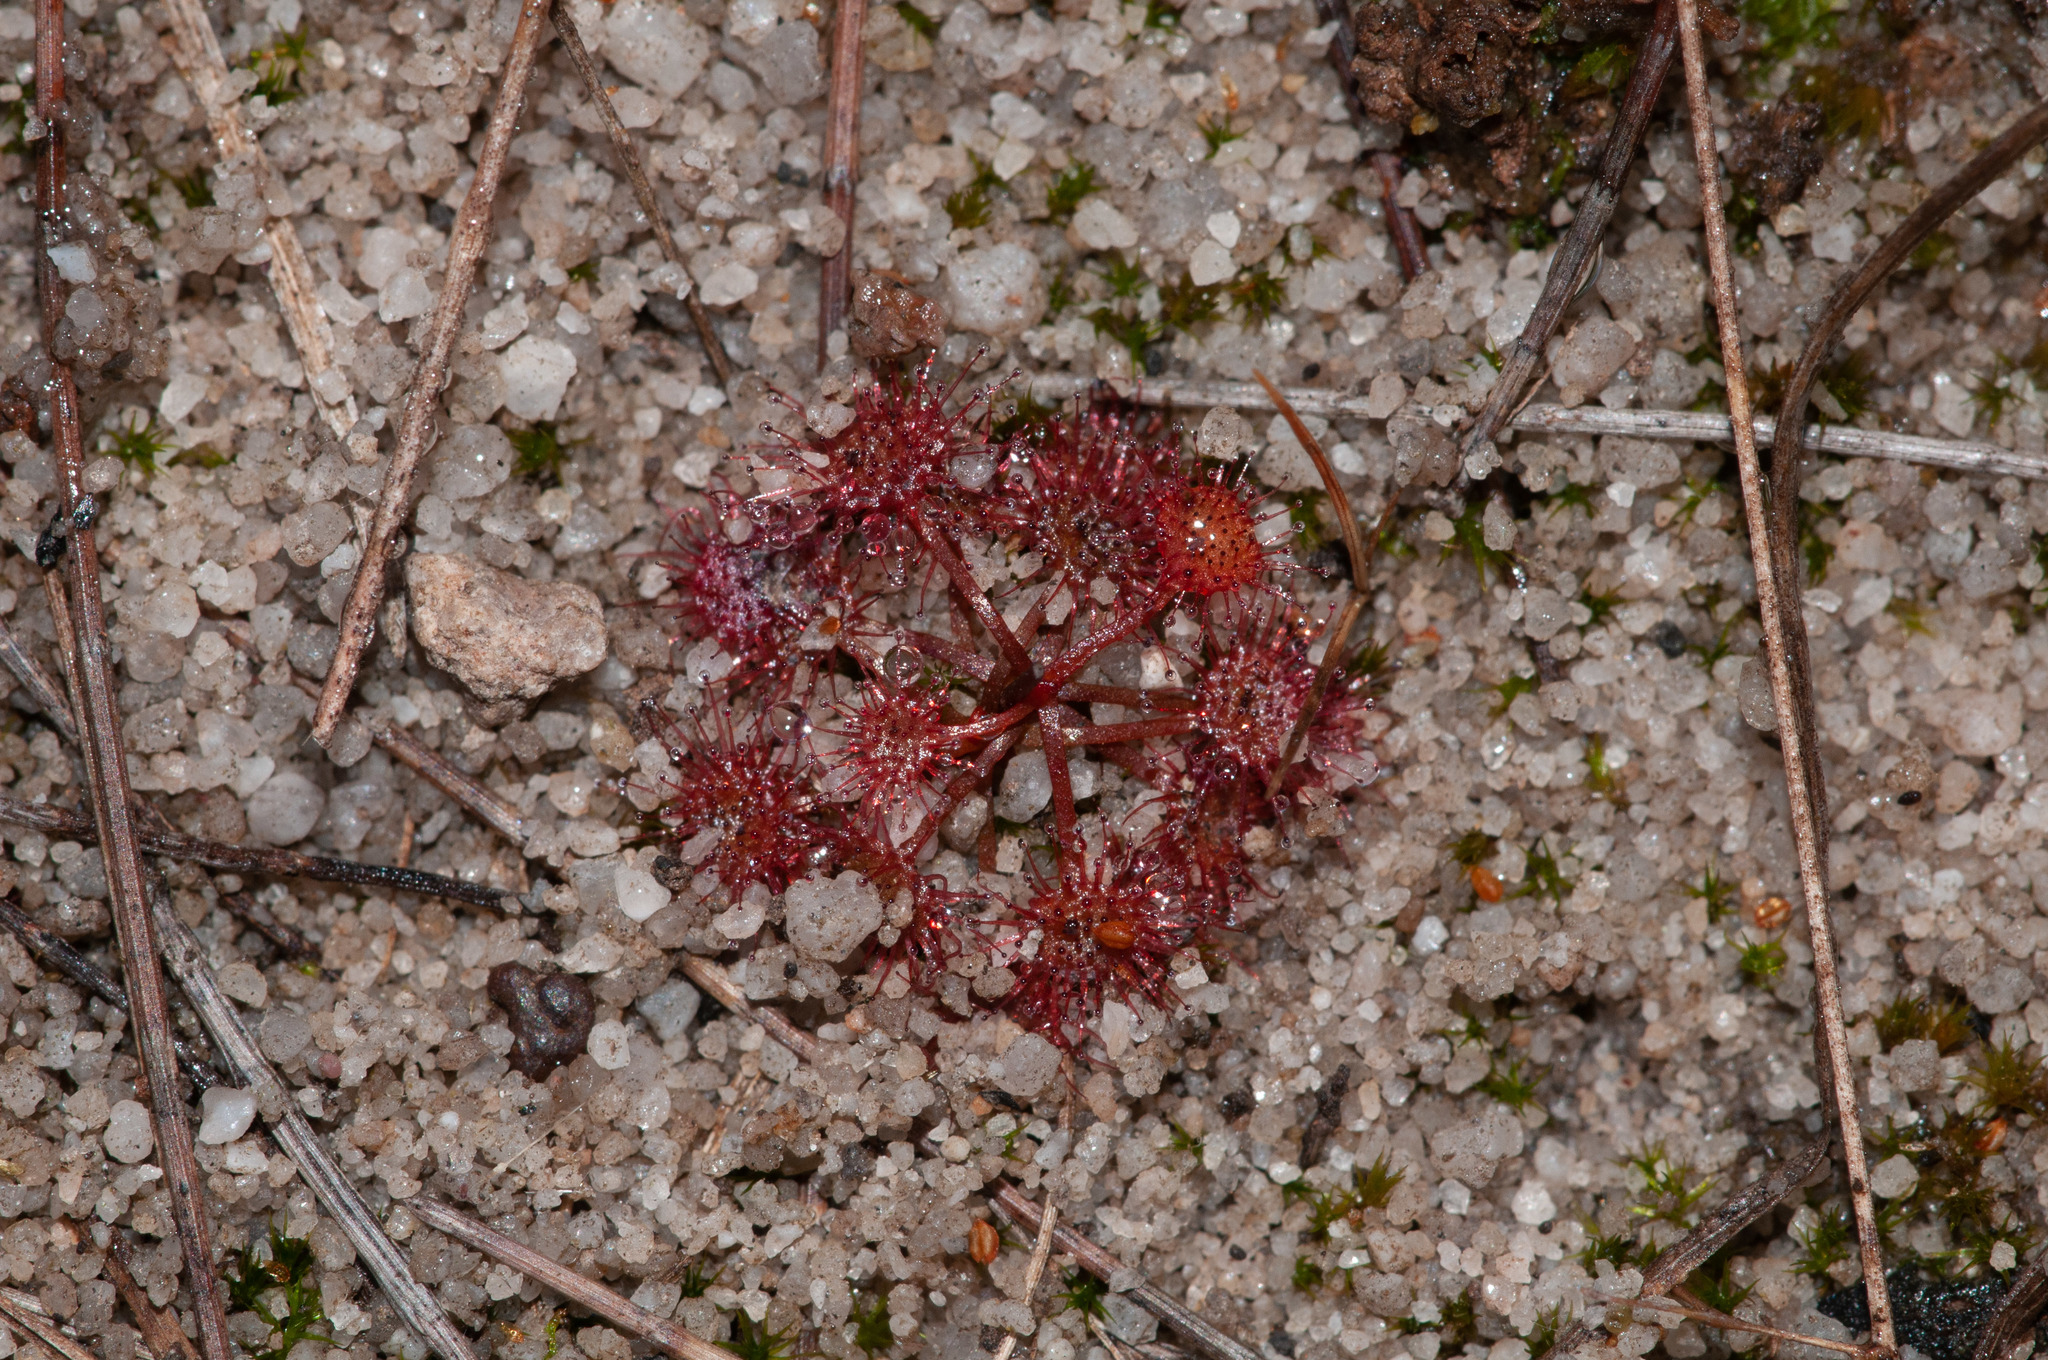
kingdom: Plantae
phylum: Tracheophyta
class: Magnoliopsida
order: Caryophyllales
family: Droseraceae
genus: Drosera
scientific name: Drosera peltata
